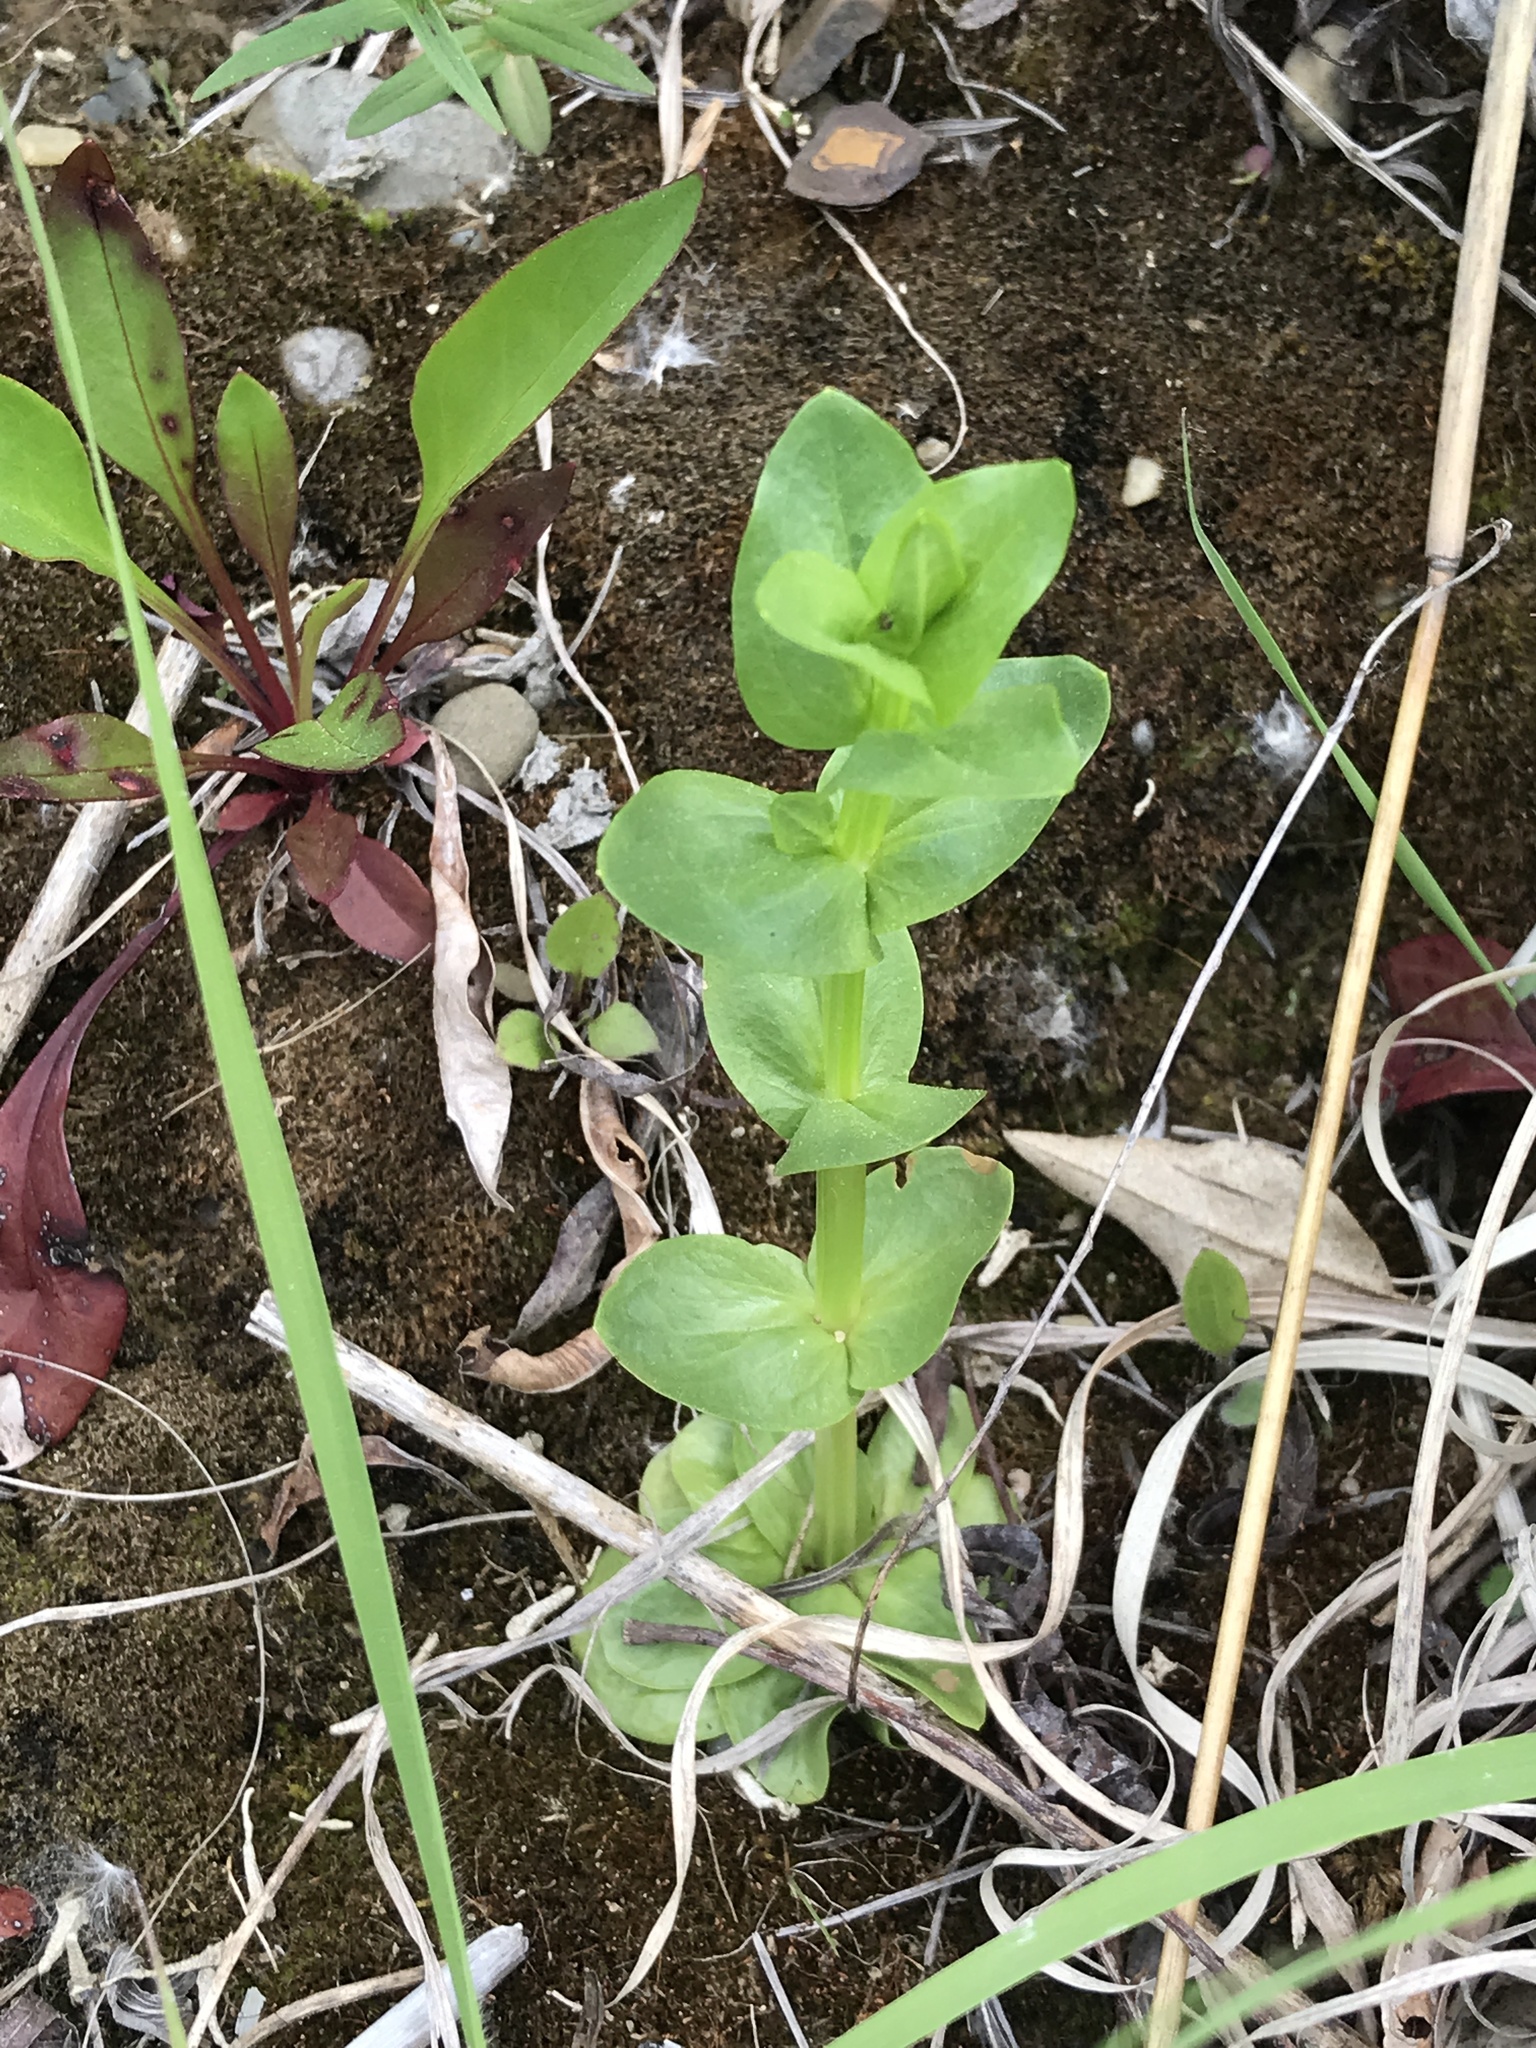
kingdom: Plantae
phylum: Tracheophyta
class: Magnoliopsida
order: Gentianales
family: Gentianaceae
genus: Sabatia
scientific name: Sabatia angularis
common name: Rose-pink
